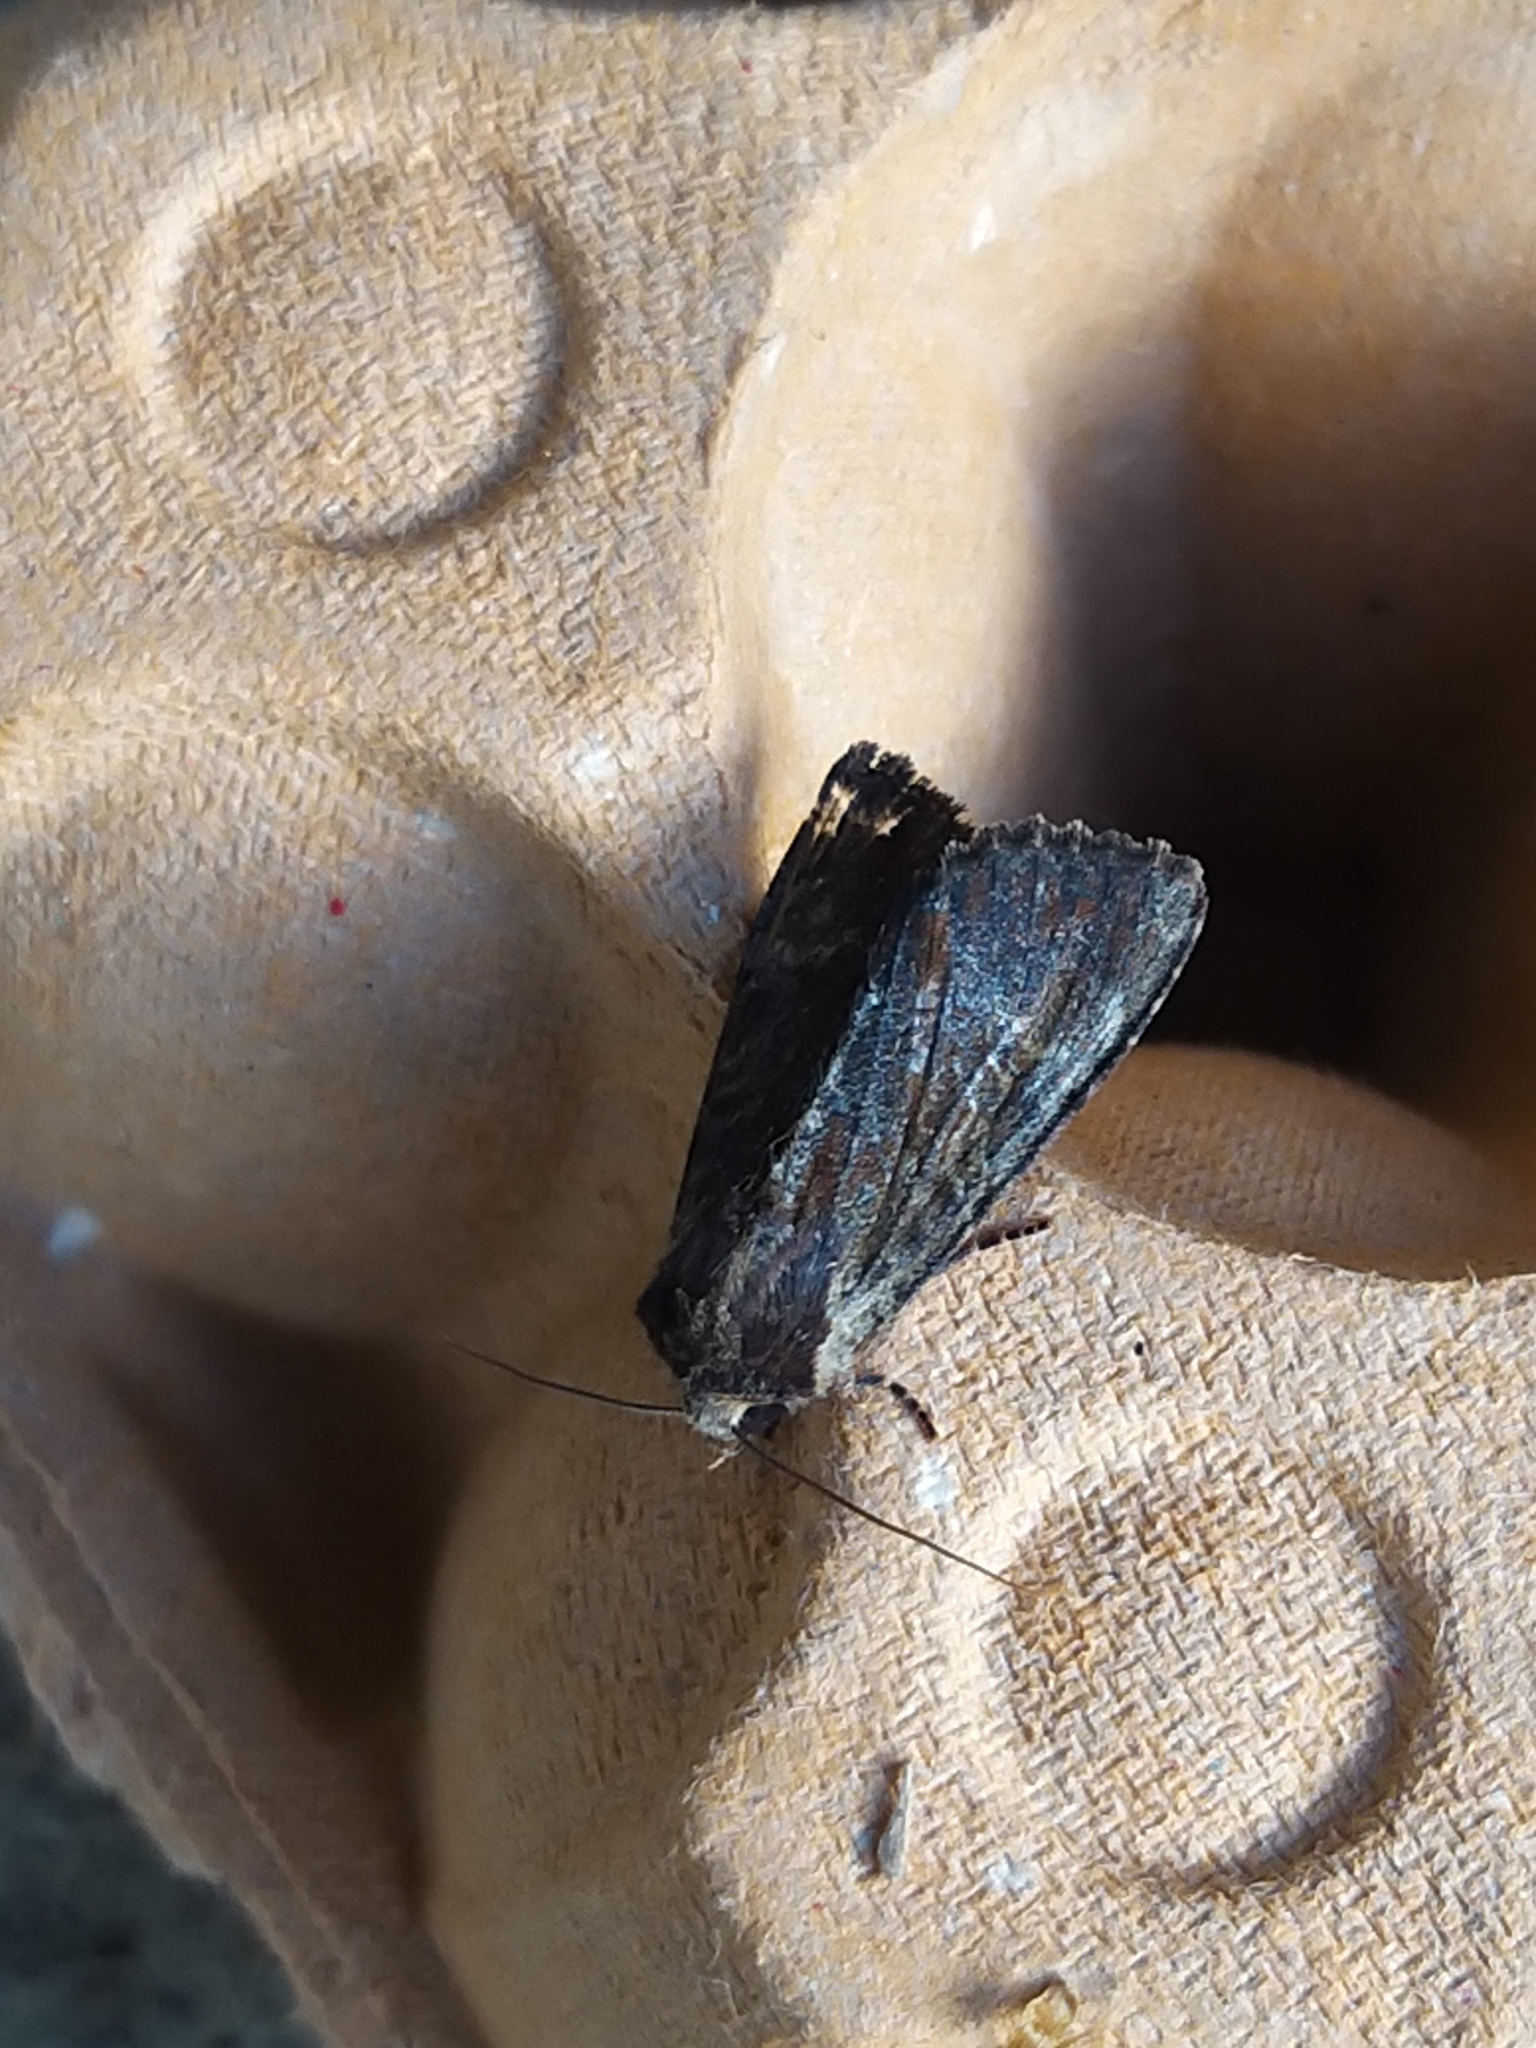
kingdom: Animalia
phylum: Arthropoda
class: Insecta
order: Lepidoptera
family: Noctuidae
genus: Apamea
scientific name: Apamea crenata
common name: Clouded-bordered brindle
